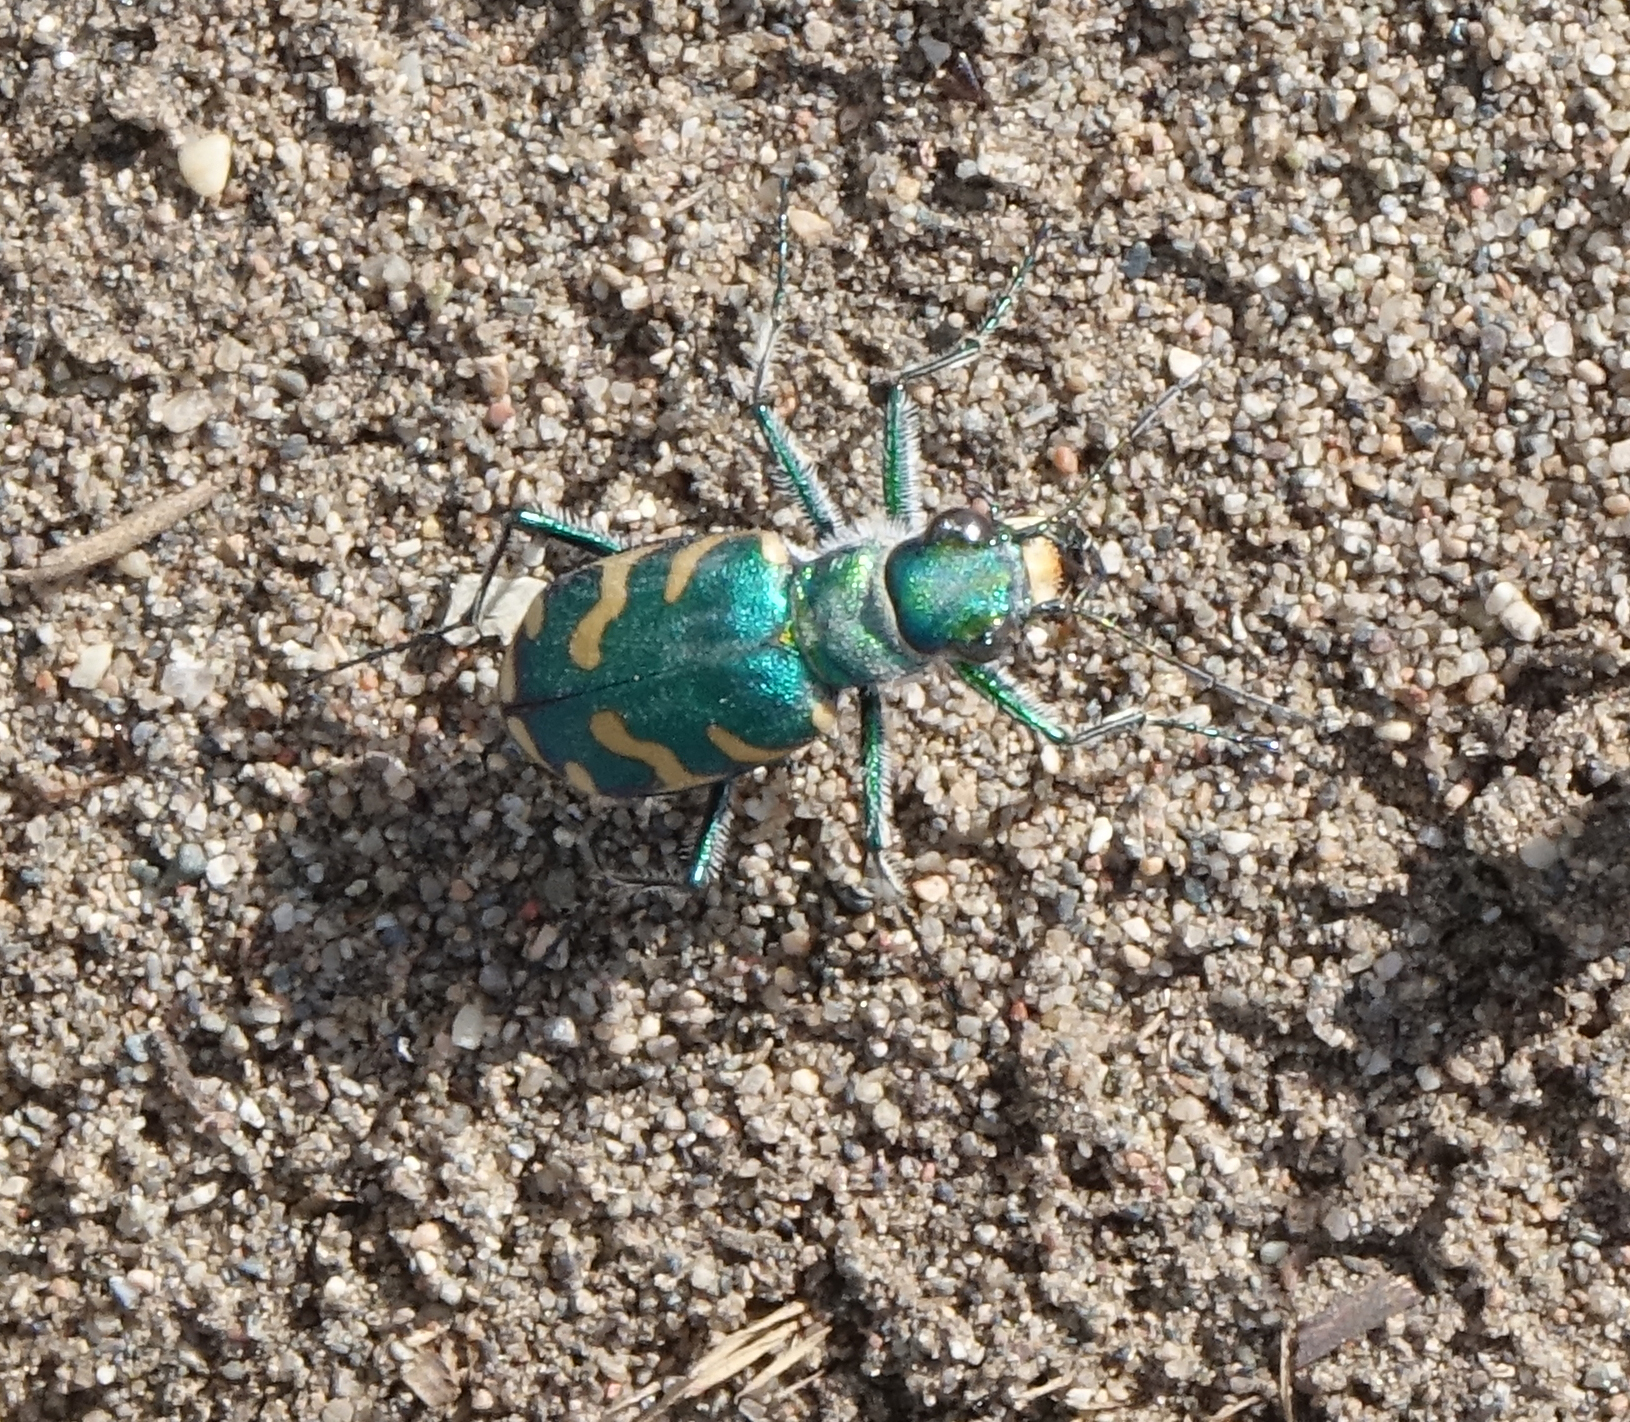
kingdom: Animalia
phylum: Arthropoda
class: Insecta
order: Coleoptera
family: Carabidae
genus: Cicindela
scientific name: Cicindela coerulea
